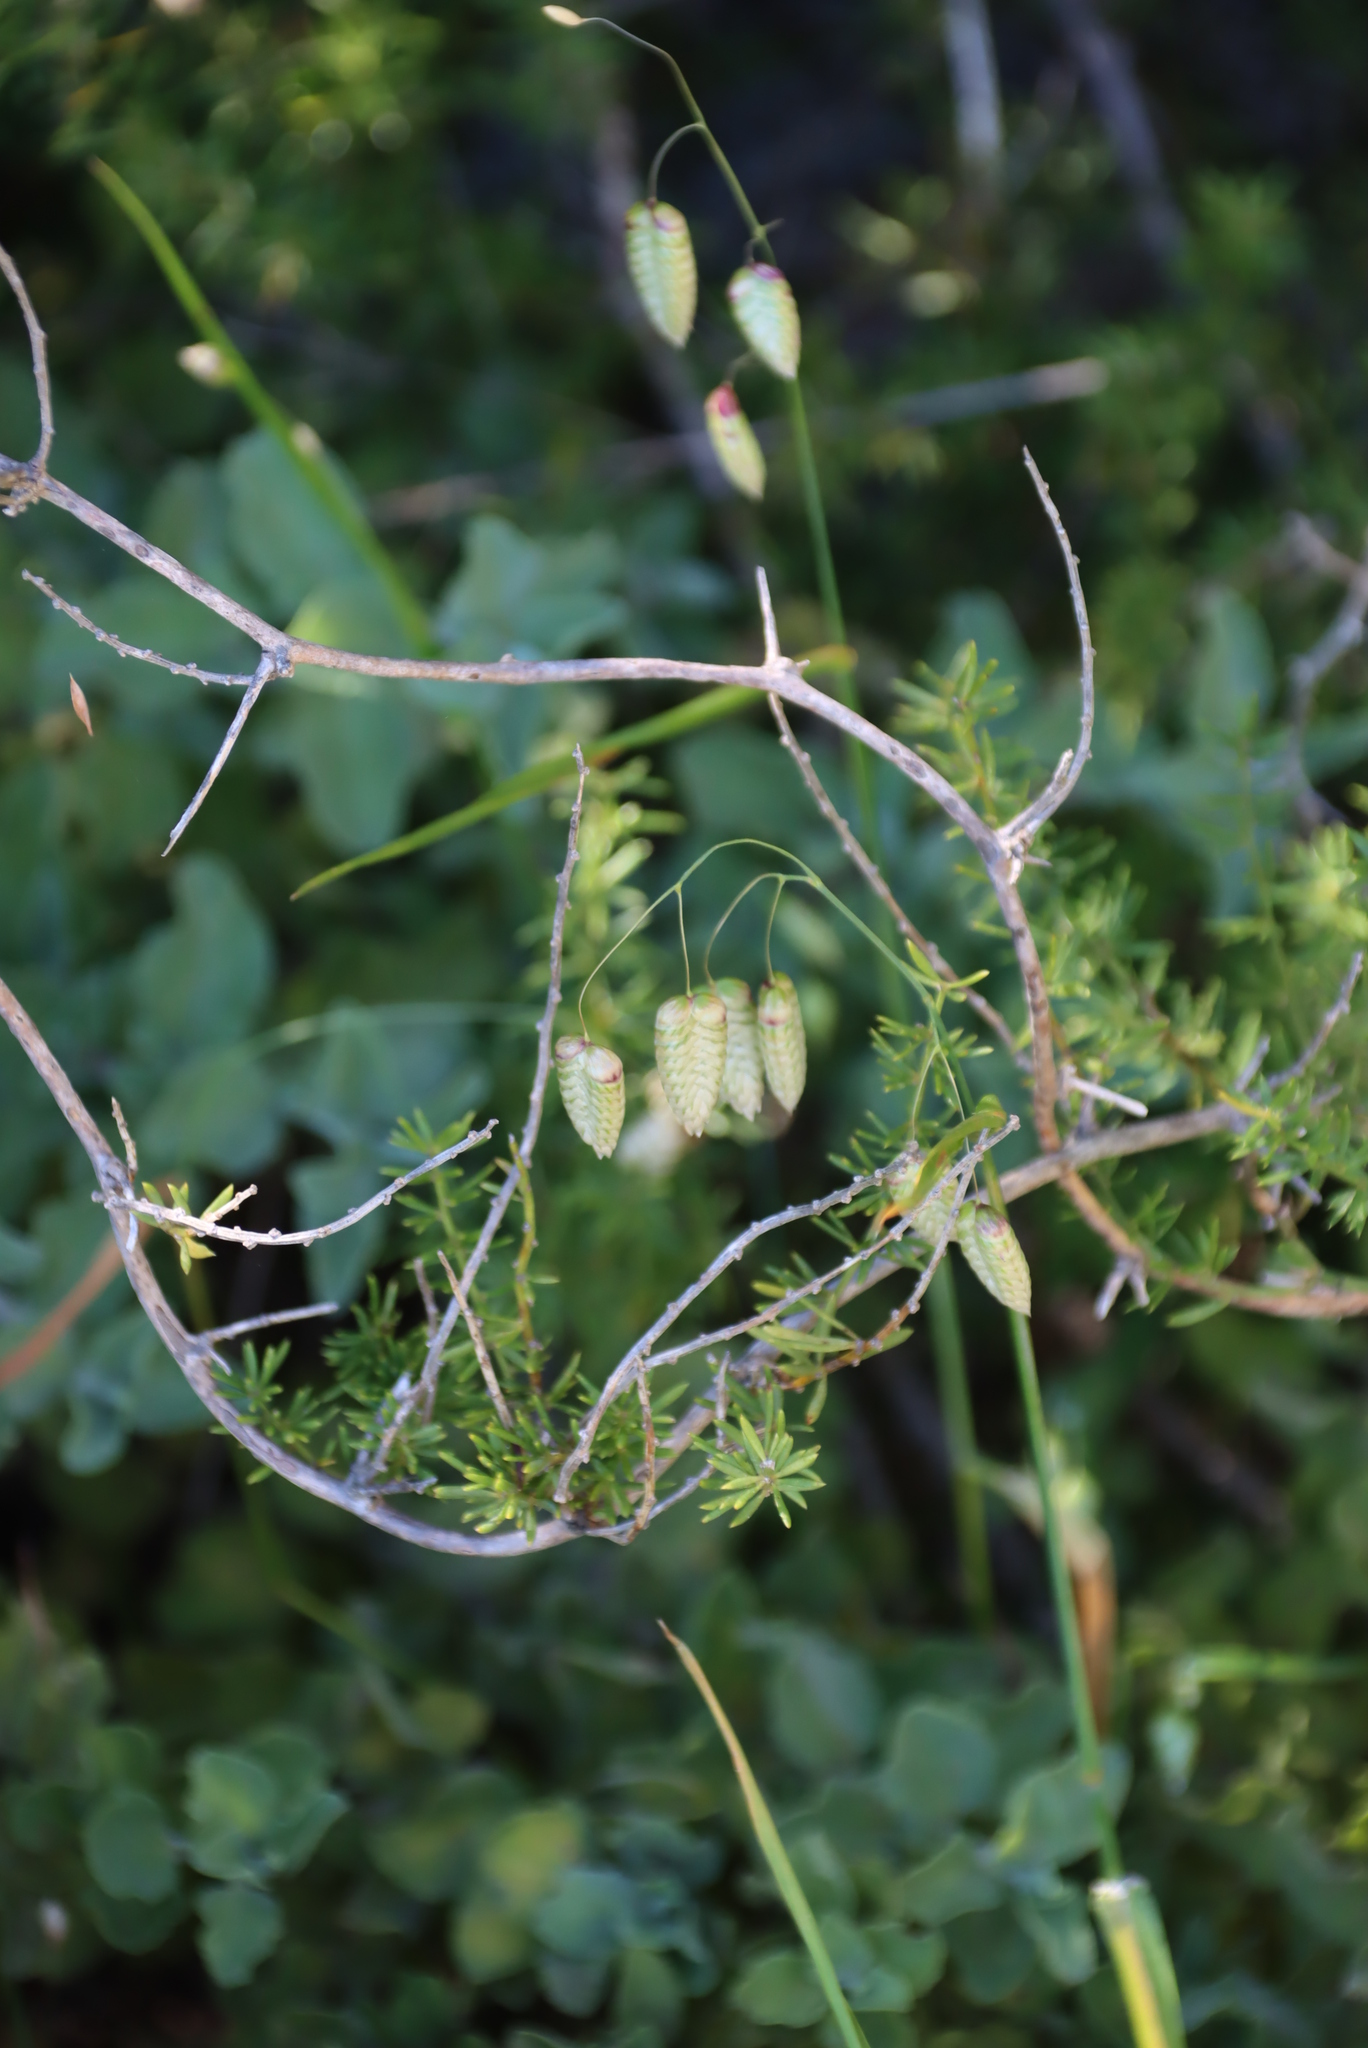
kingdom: Plantae
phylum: Tracheophyta
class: Liliopsida
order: Poales
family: Poaceae
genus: Briza
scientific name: Briza maxima
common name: Big quakinggrass
